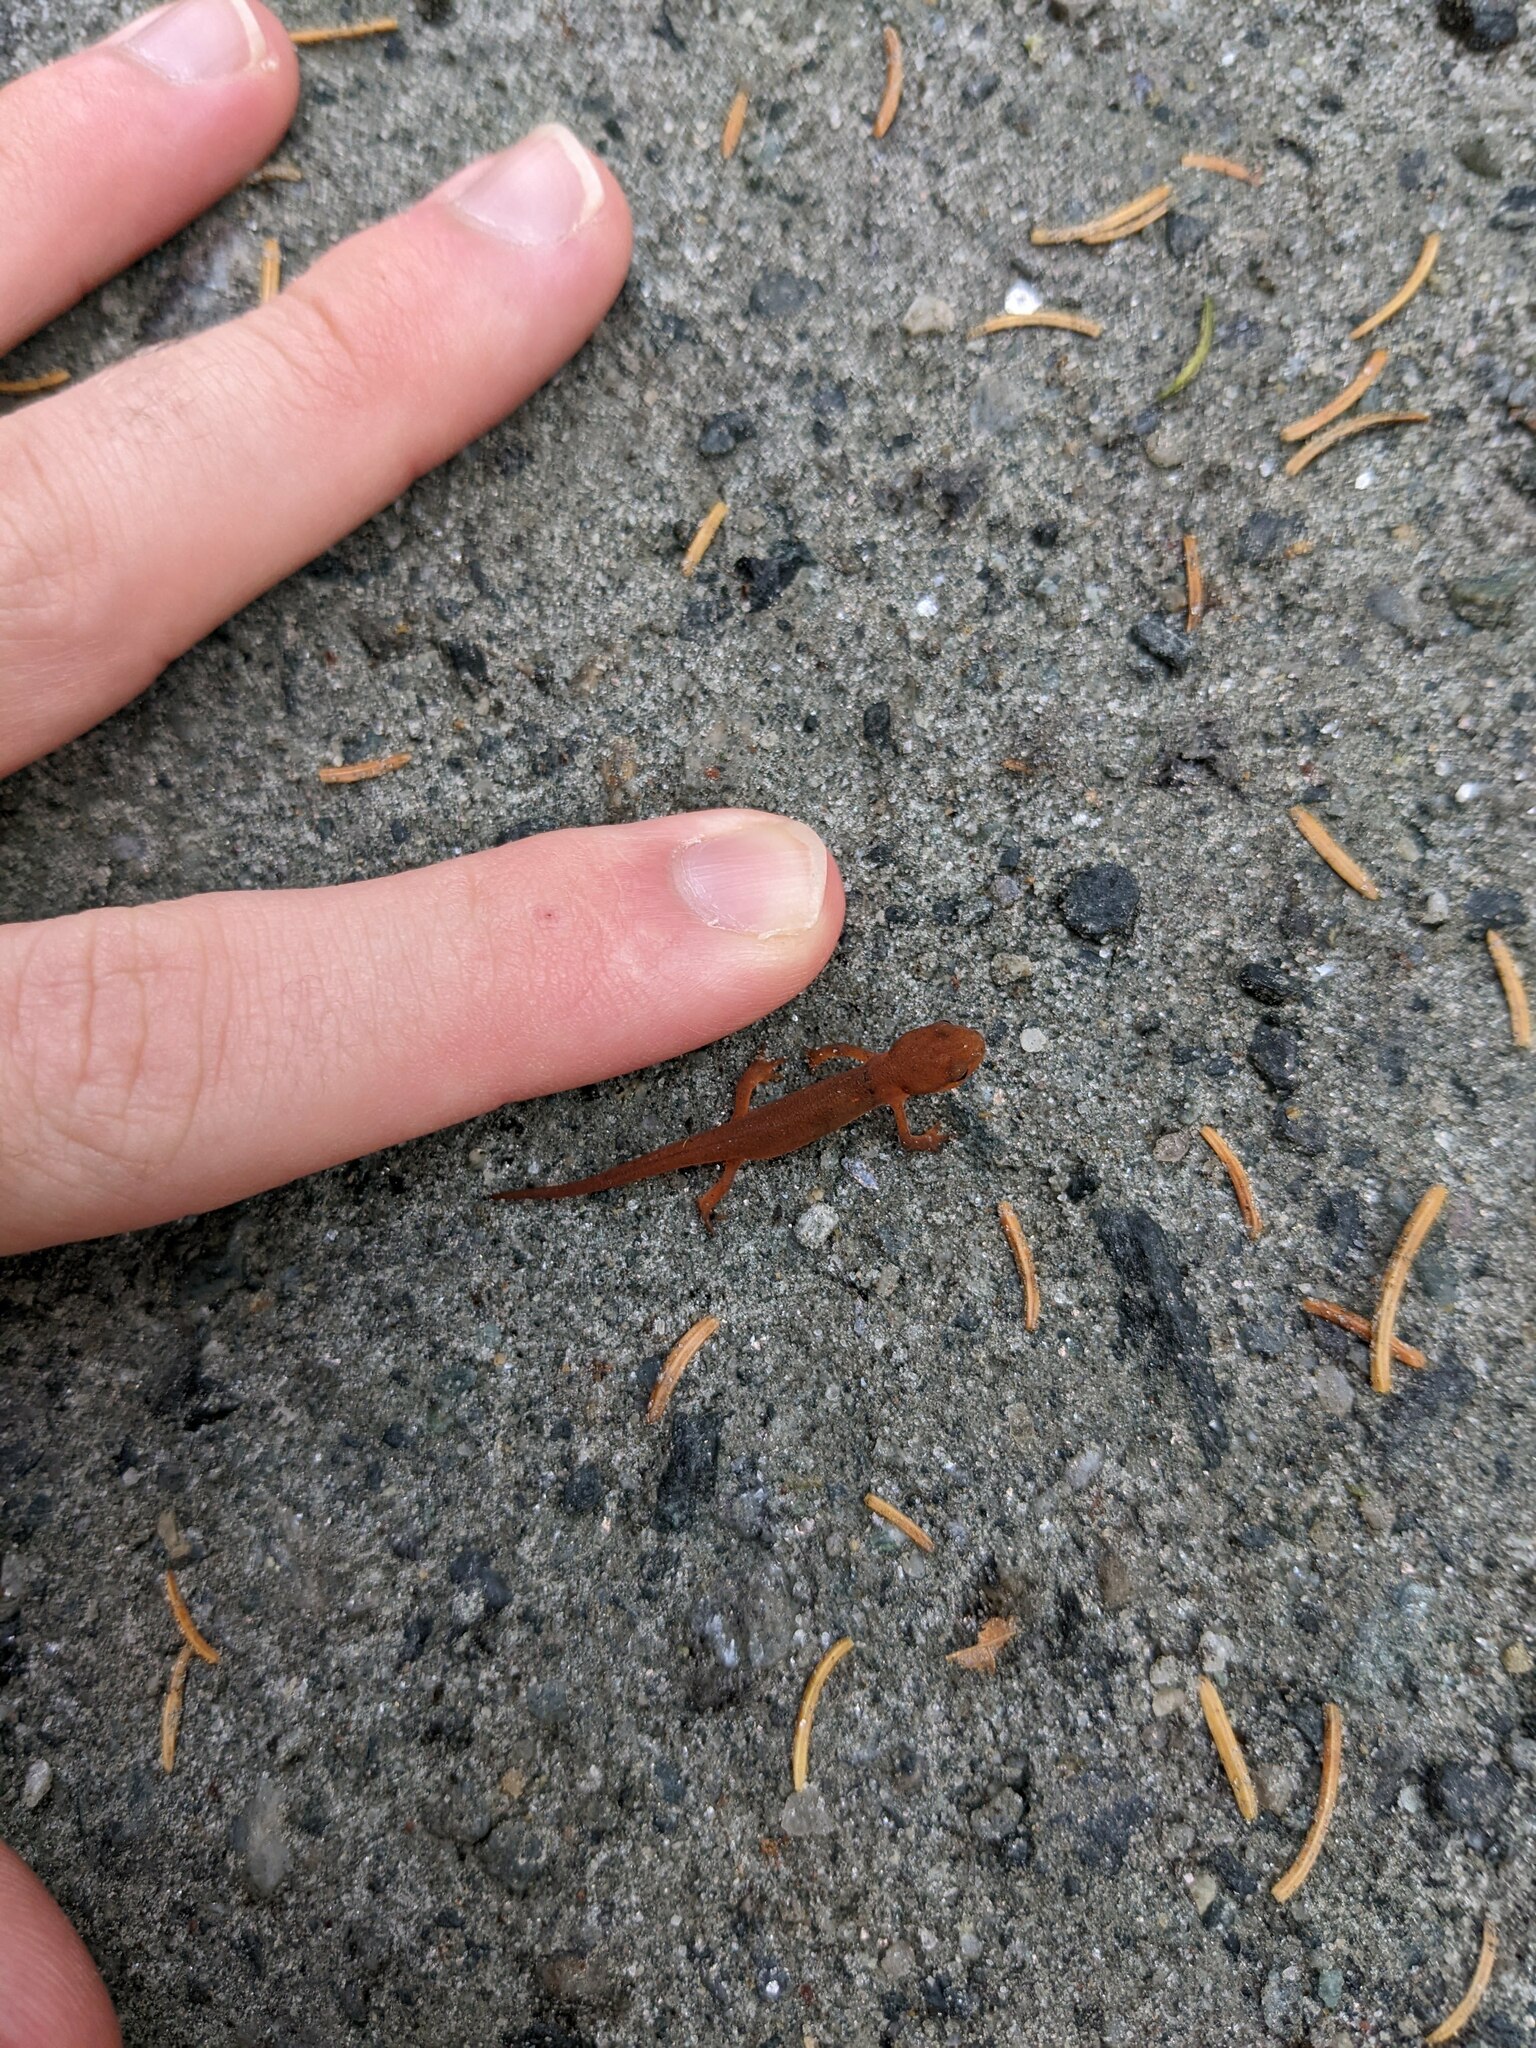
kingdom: Animalia
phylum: Chordata
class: Amphibia
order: Caudata
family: Salamandridae
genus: Notophthalmus
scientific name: Notophthalmus viridescens
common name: Eastern newt
